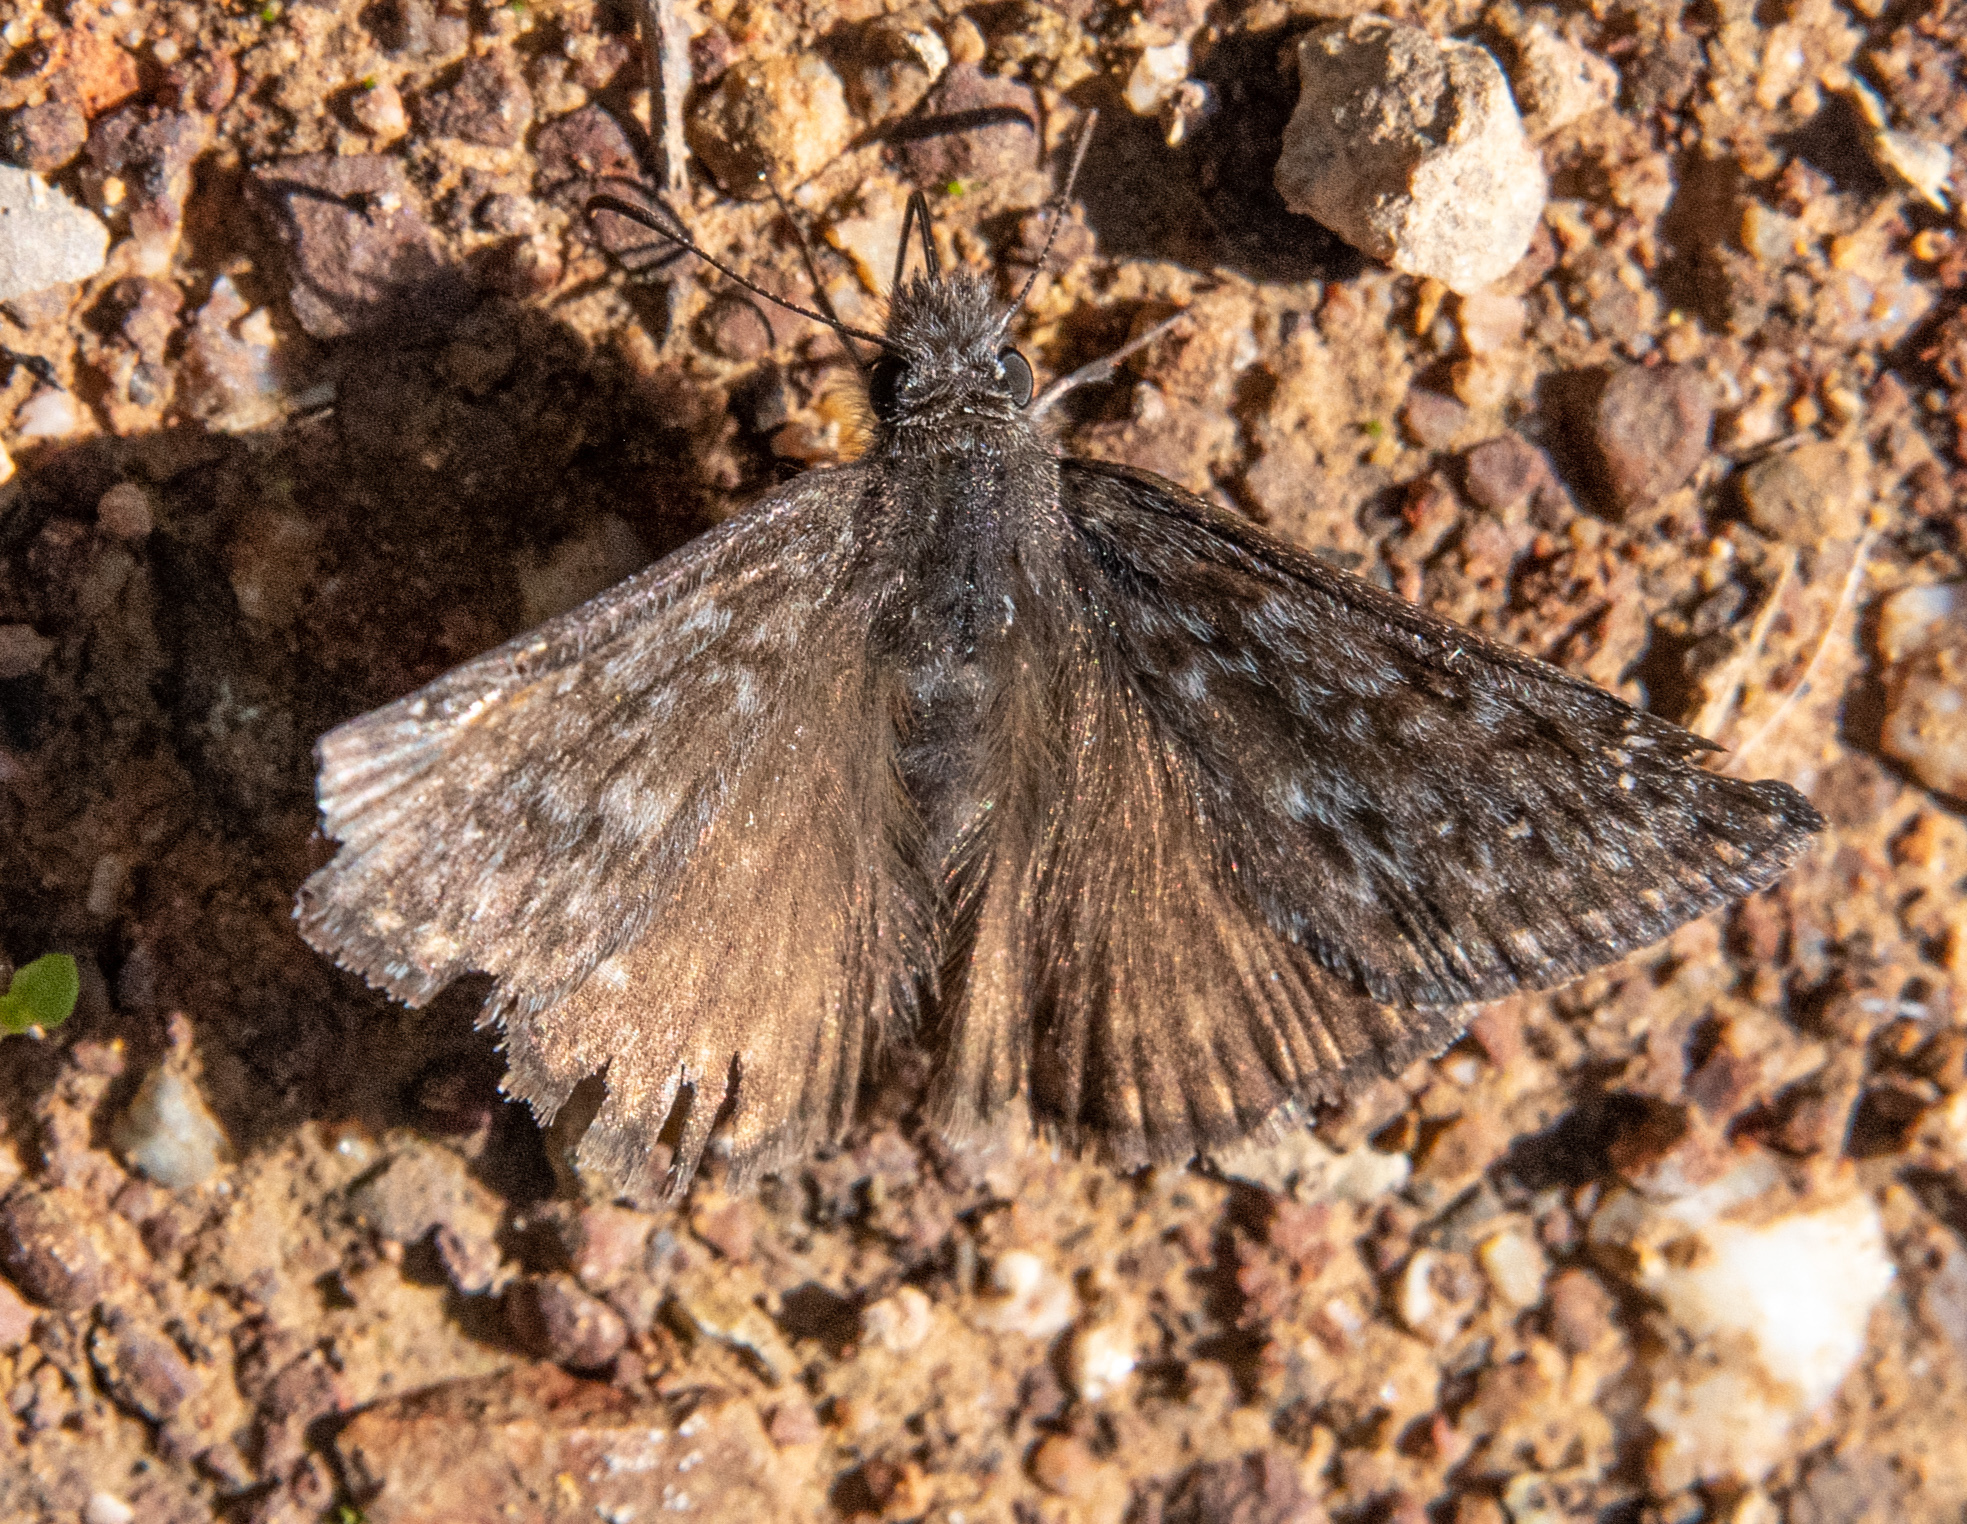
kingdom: Animalia
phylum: Arthropoda
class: Insecta
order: Lepidoptera
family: Hesperiidae
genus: Erynnis
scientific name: Erynnis propertius
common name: Propertius duskywing
